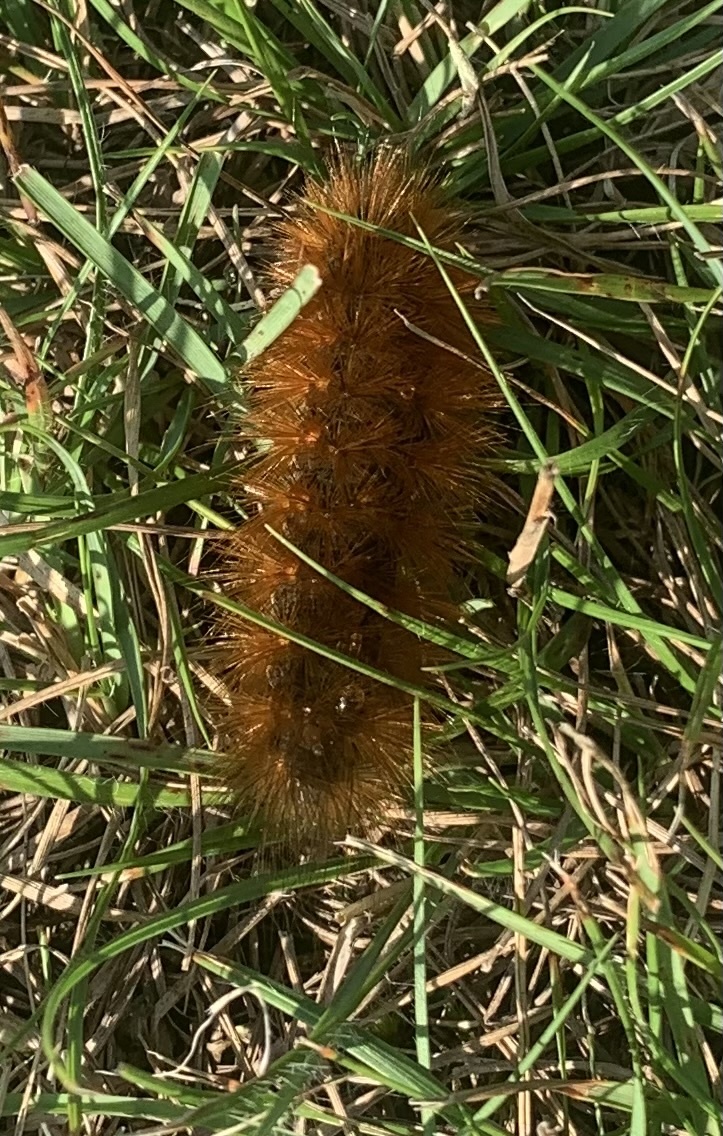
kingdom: Animalia
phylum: Arthropoda
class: Insecta
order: Lepidoptera
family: Erebidae
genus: Estigmene
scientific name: Estigmene acrea
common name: Salt marsh moth
